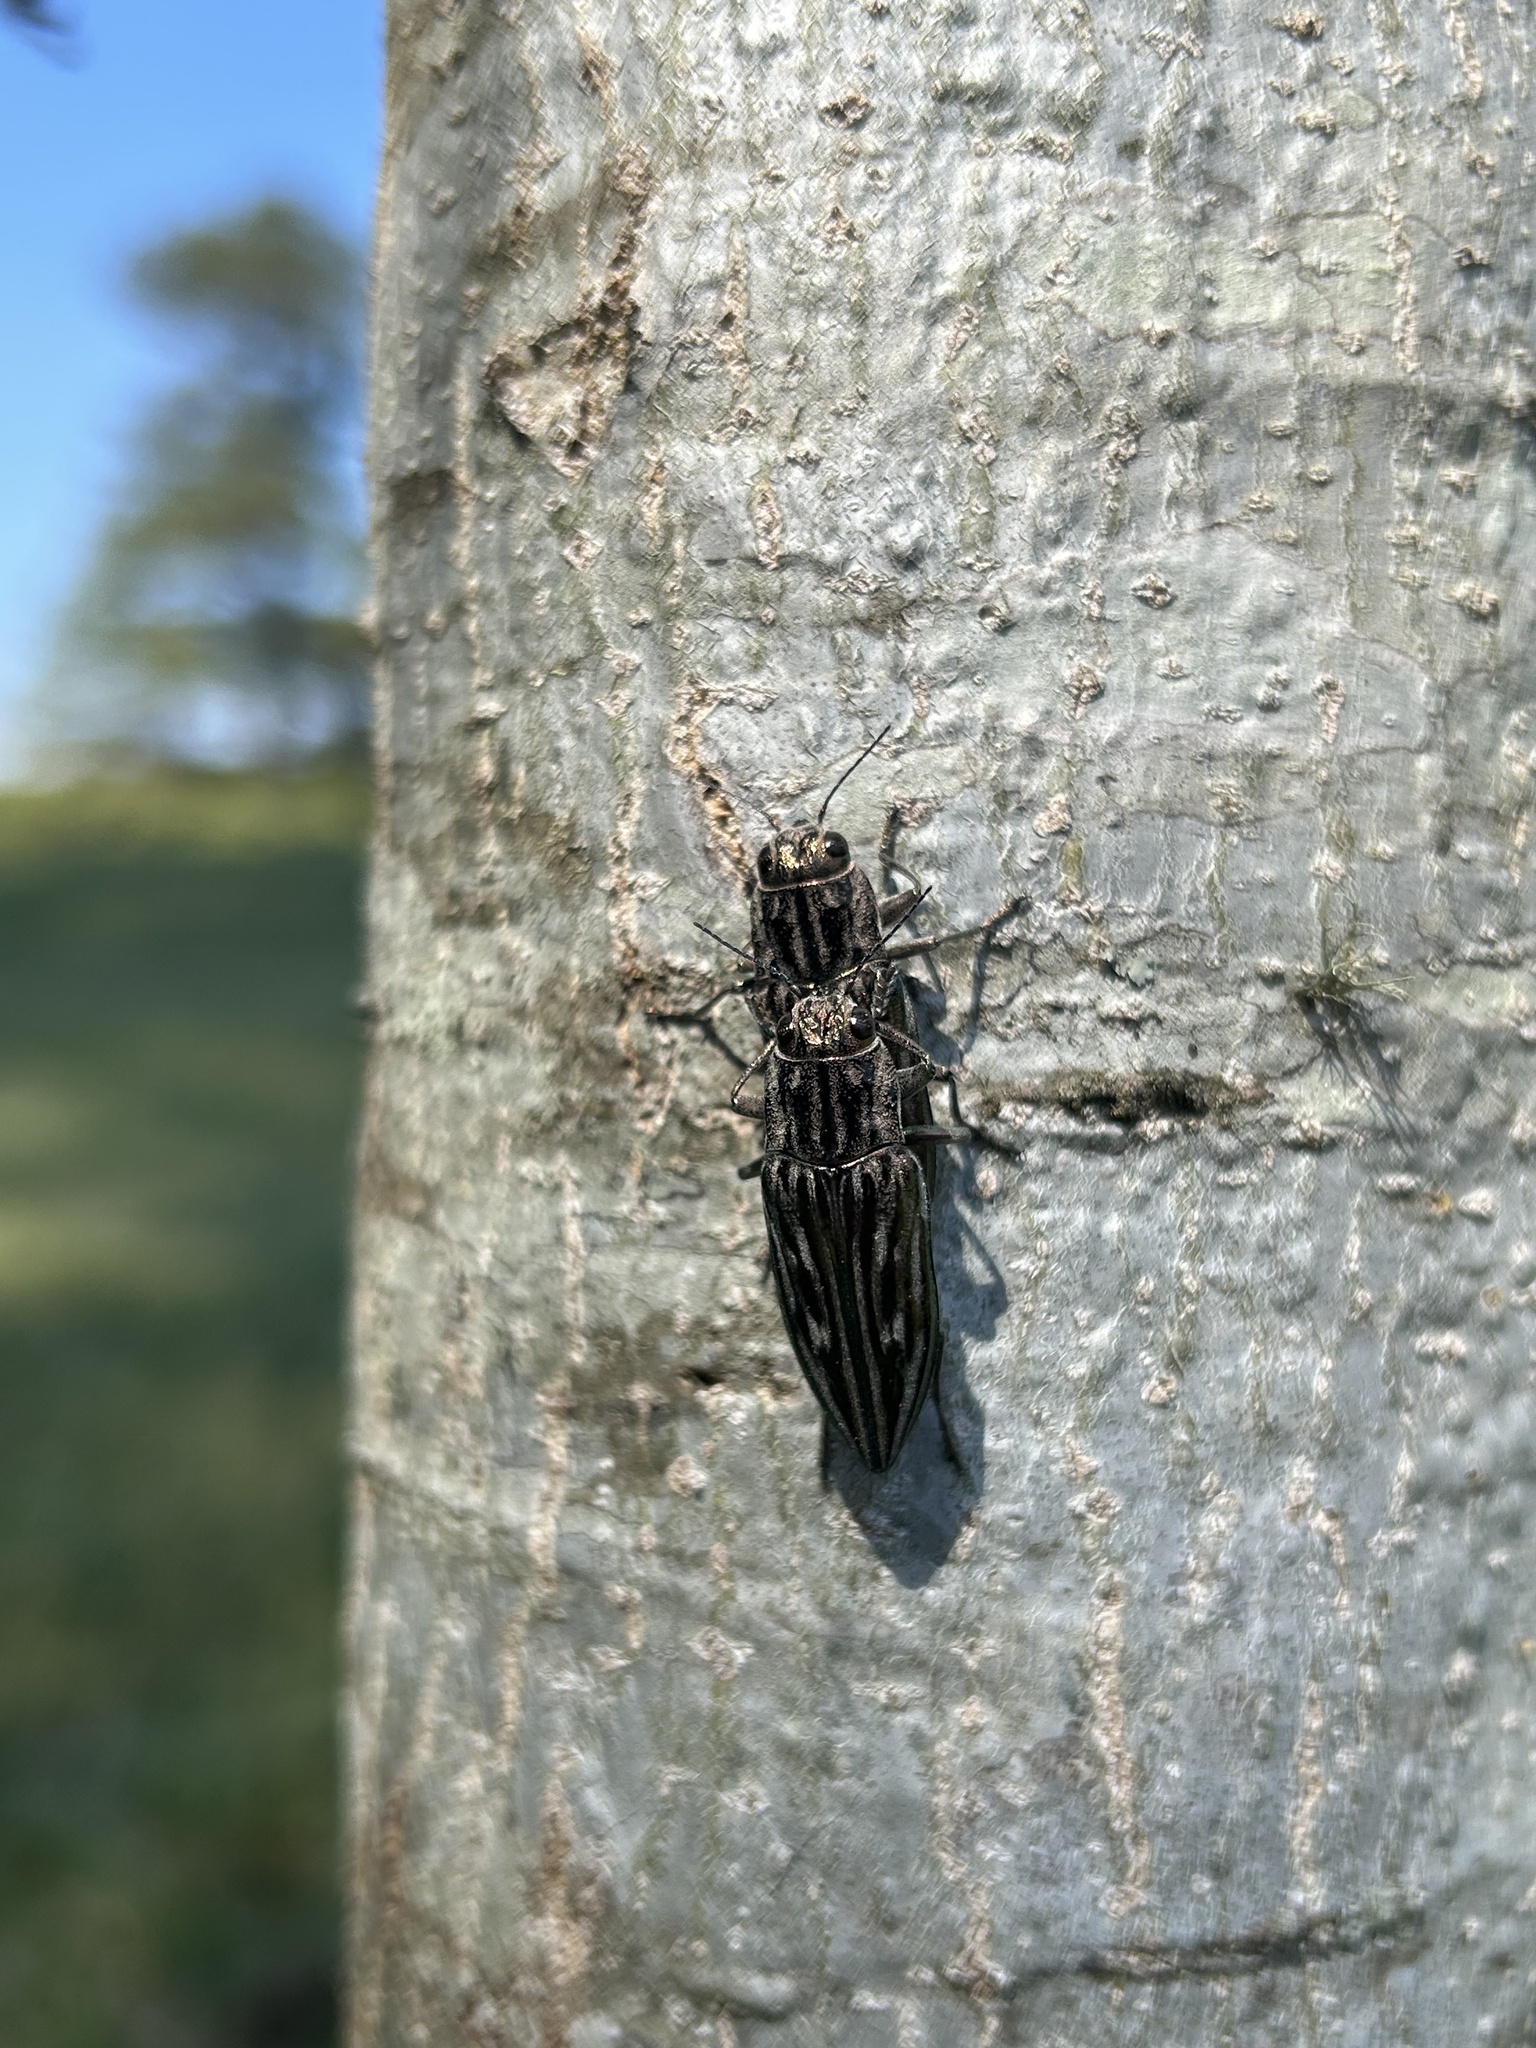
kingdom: Animalia
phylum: Arthropoda
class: Insecta
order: Coleoptera
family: Buprestidae
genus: Chalcophora
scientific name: Chalcophora georgiana
